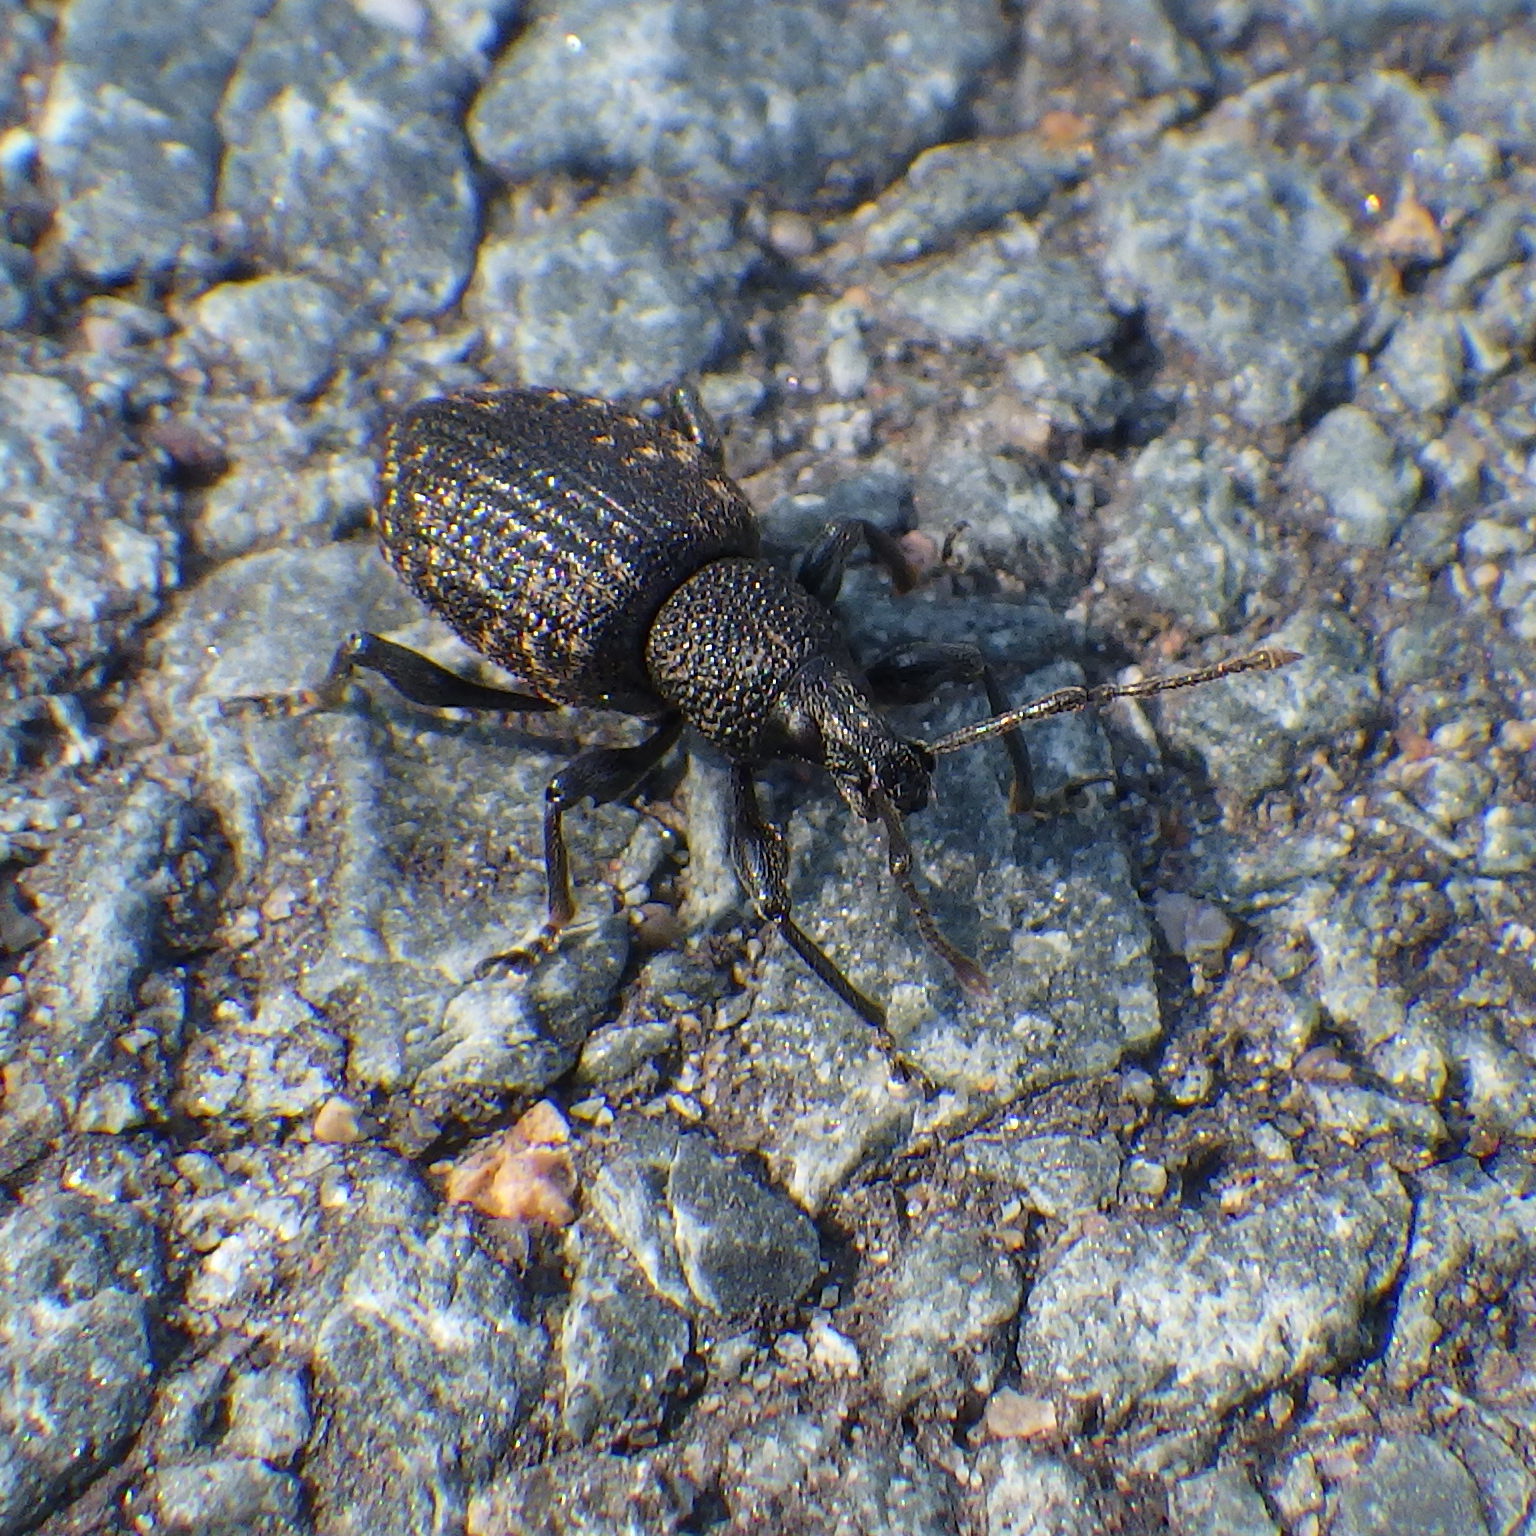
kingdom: Animalia
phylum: Arthropoda
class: Insecta
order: Coleoptera
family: Curculionidae
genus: Otiorhynchus
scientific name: Otiorhynchus sulcatus
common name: Black vine weevil
